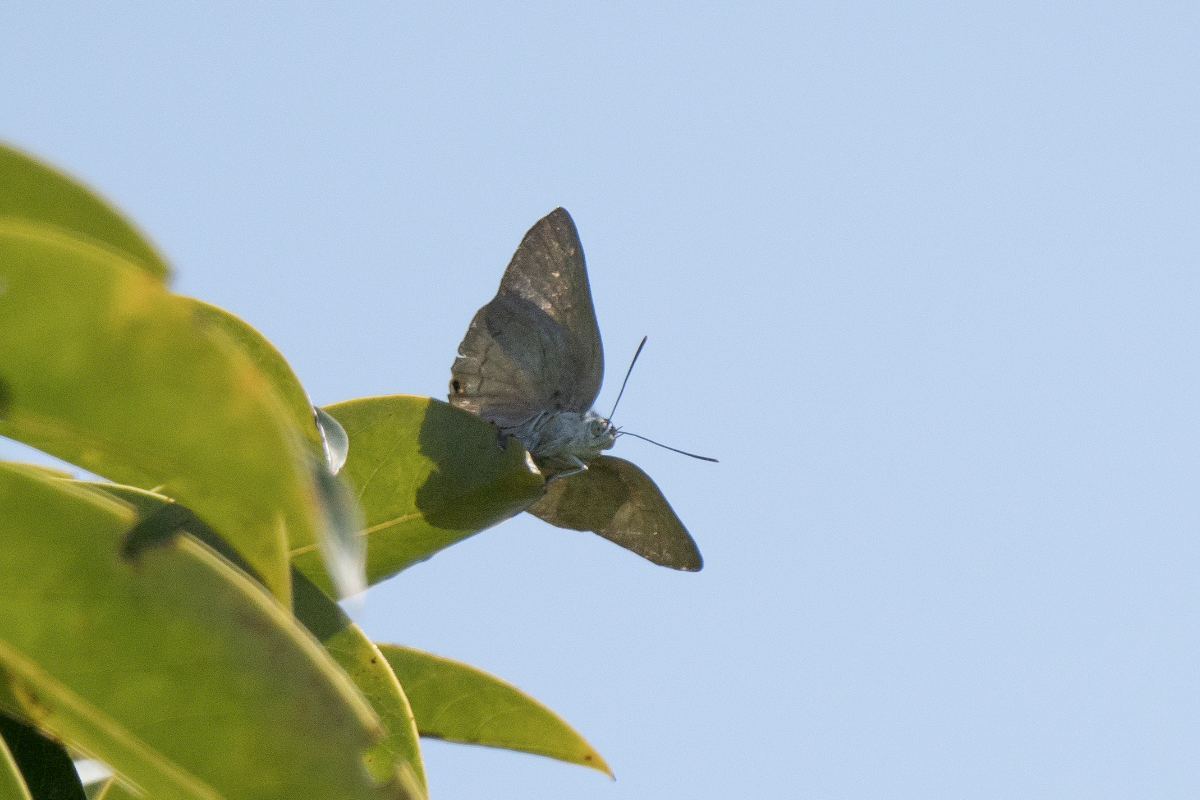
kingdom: Animalia
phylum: Arthropoda
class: Insecta
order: Lepidoptera
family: Lycaenidae
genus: Ancema
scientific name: Ancema blanka
